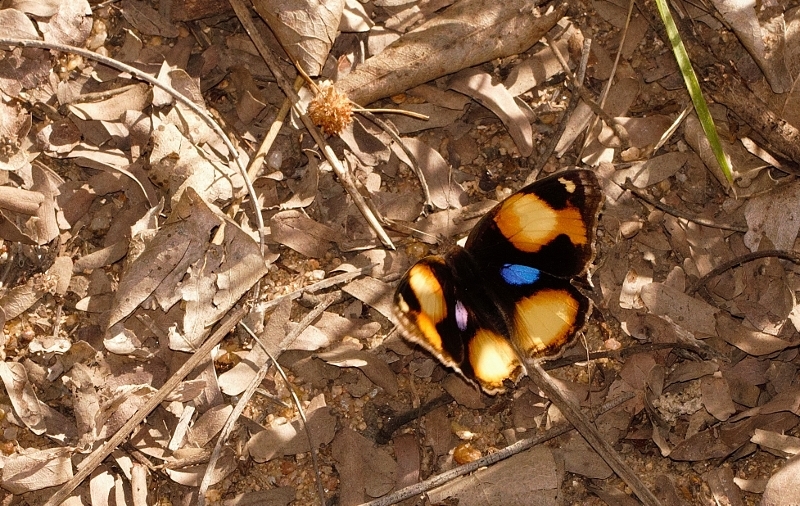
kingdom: Animalia
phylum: Arthropoda
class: Insecta
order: Lepidoptera
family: Nymphalidae
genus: Junonia
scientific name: Junonia hierta
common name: Yellow pansy
